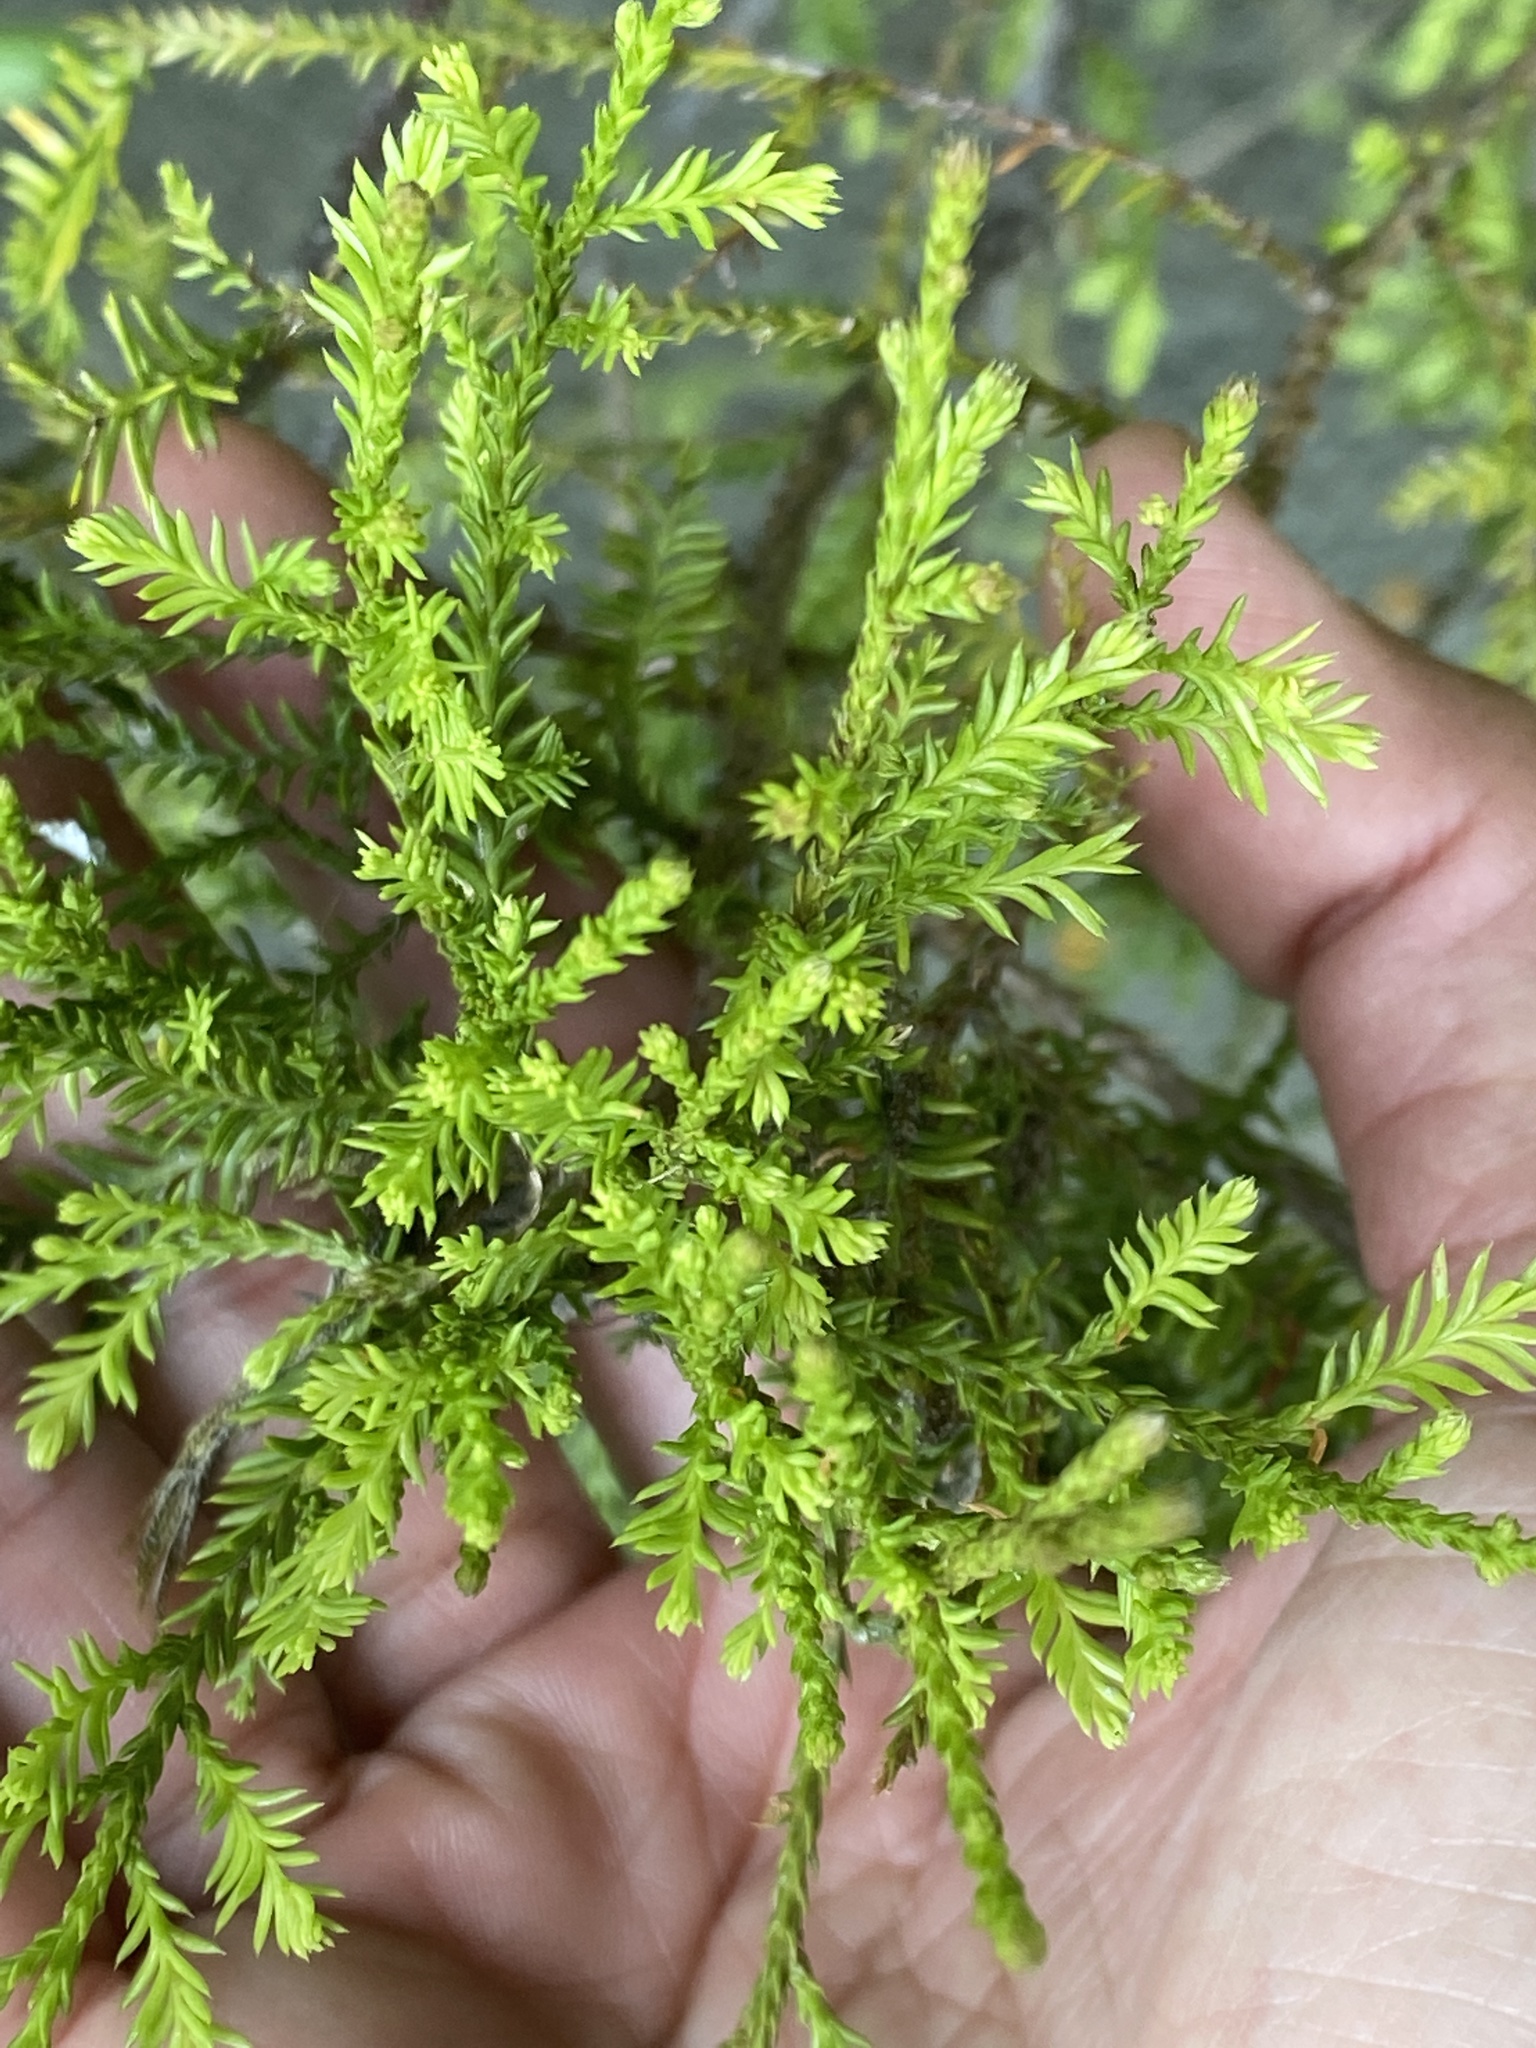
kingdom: Plantae
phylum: Tracheophyta
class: Pinopsida
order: Pinales
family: Podocarpaceae
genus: Dacrycarpus
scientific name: Dacrycarpus dacrydioides
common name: White pine
